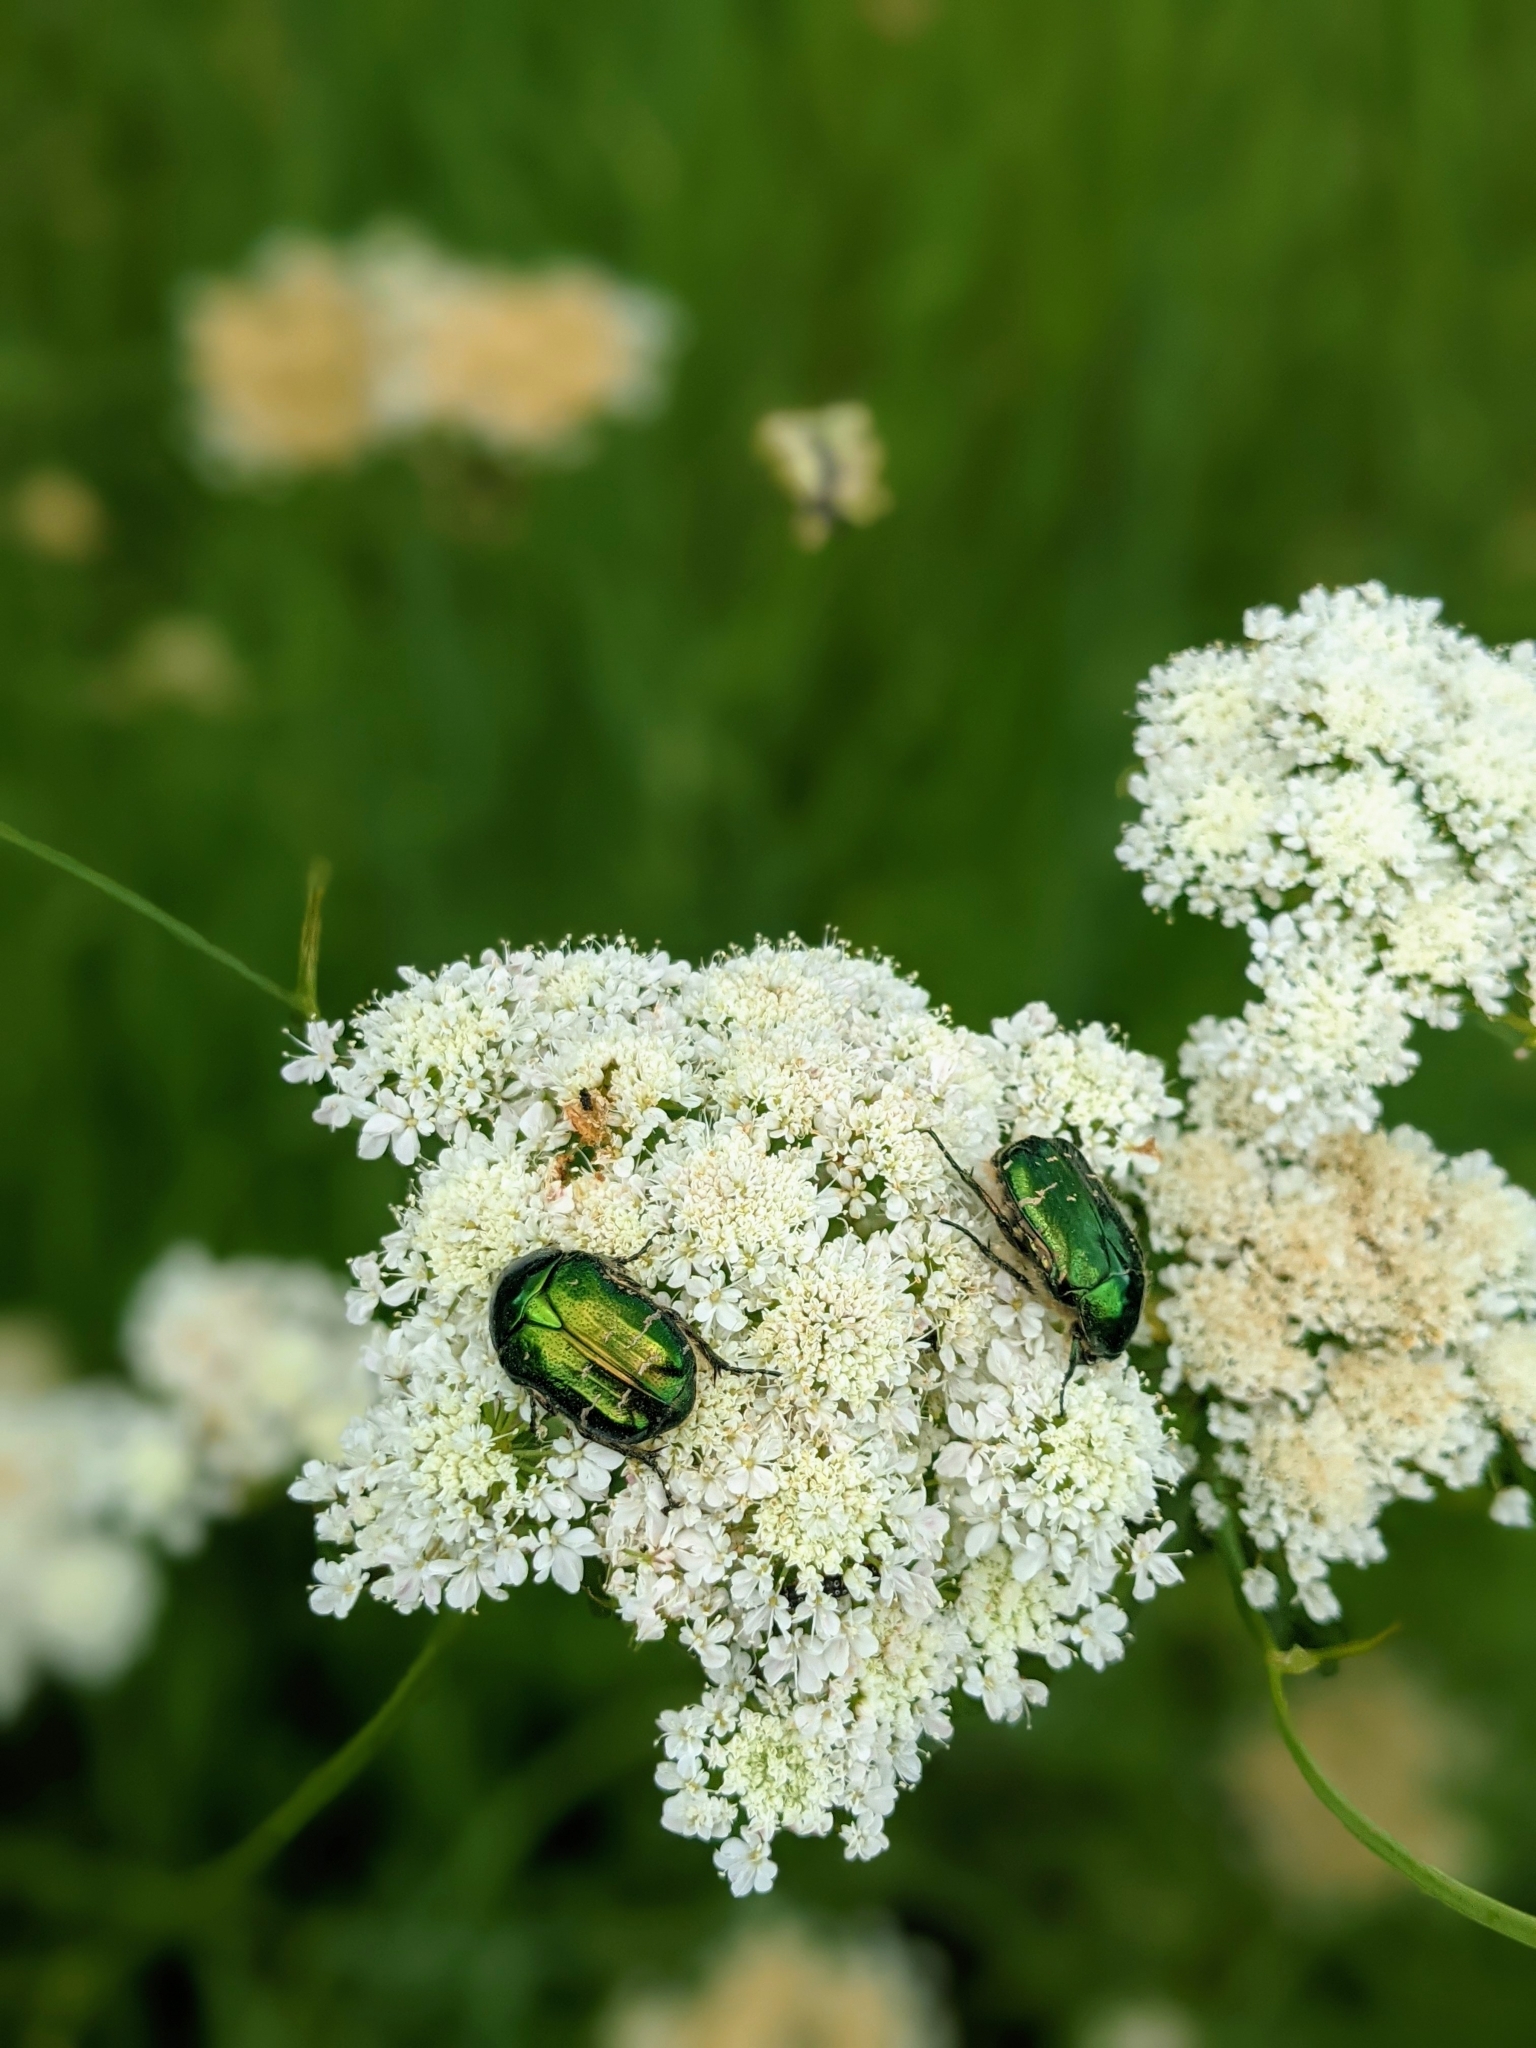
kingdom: Animalia
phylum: Arthropoda
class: Insecta
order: Coleoptera
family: Scarabaeidae
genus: Cetonia
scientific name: Cetonia aurata
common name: Rose chafer
